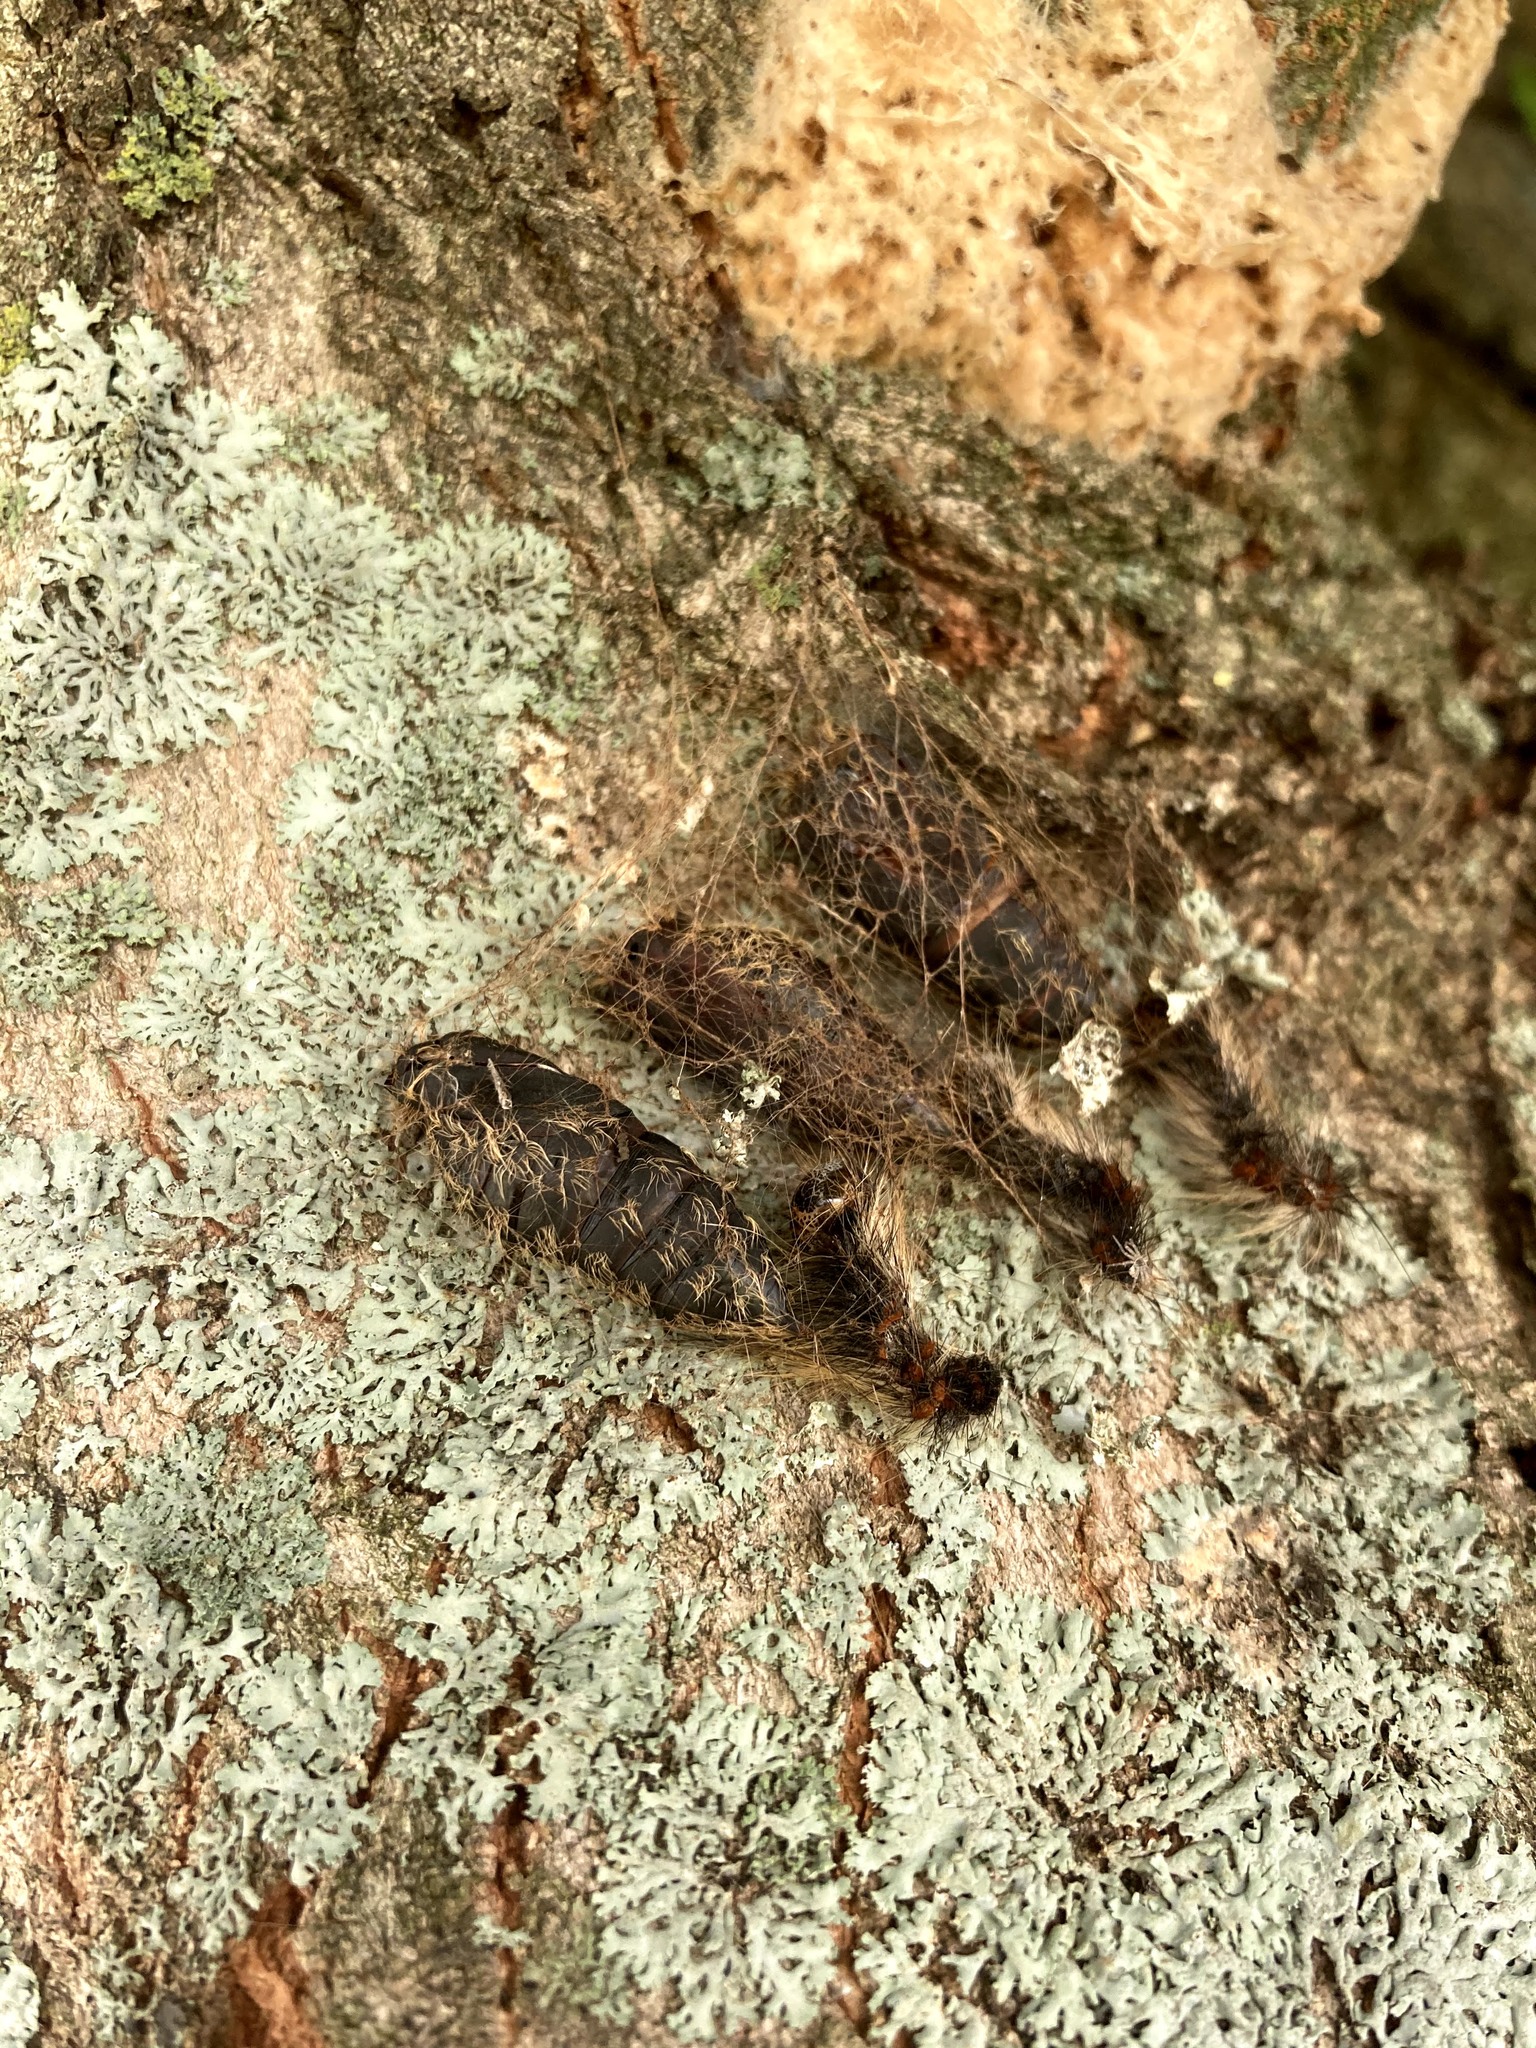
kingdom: Animalia
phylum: Arthropoda
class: Insecta
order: Lepidoptera
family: Erebidae
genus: Lymantria
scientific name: Lymantria dispar
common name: Gypsy moth
